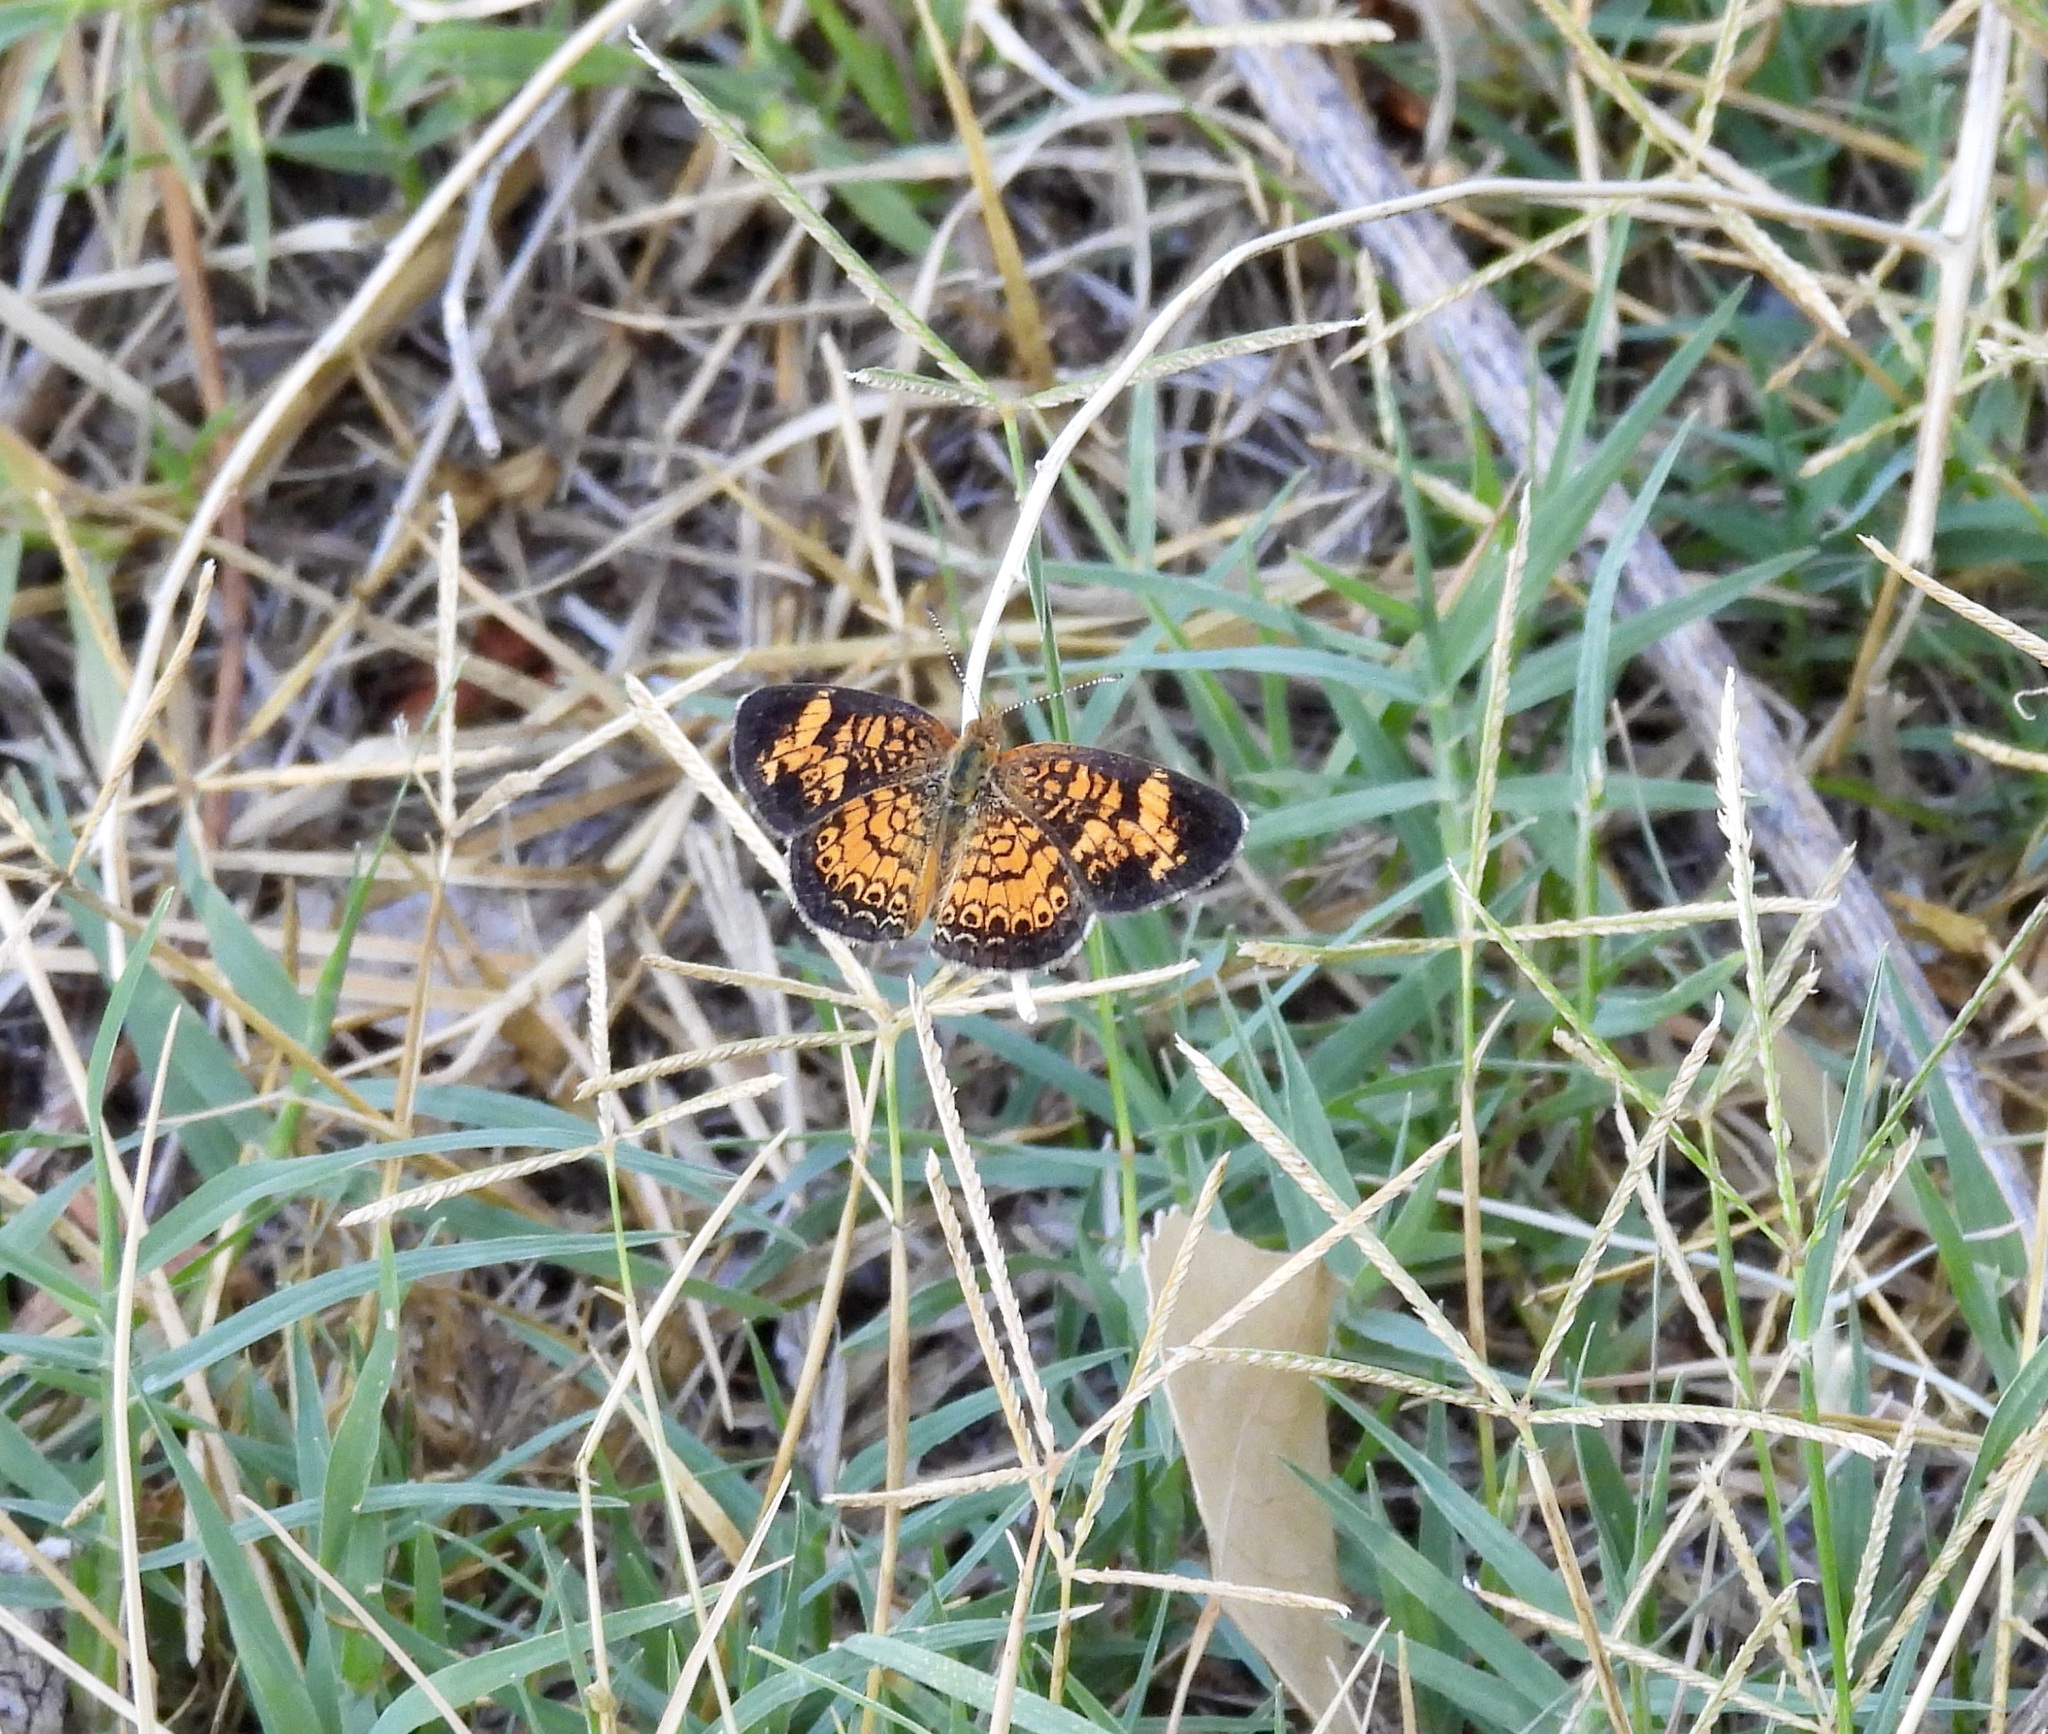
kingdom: Animalia
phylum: Arthropoda
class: Insecta
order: Lepidoptera
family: Nymphalidae
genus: Phyciodes
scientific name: Phyciodes tharos
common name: Pearl crescent
